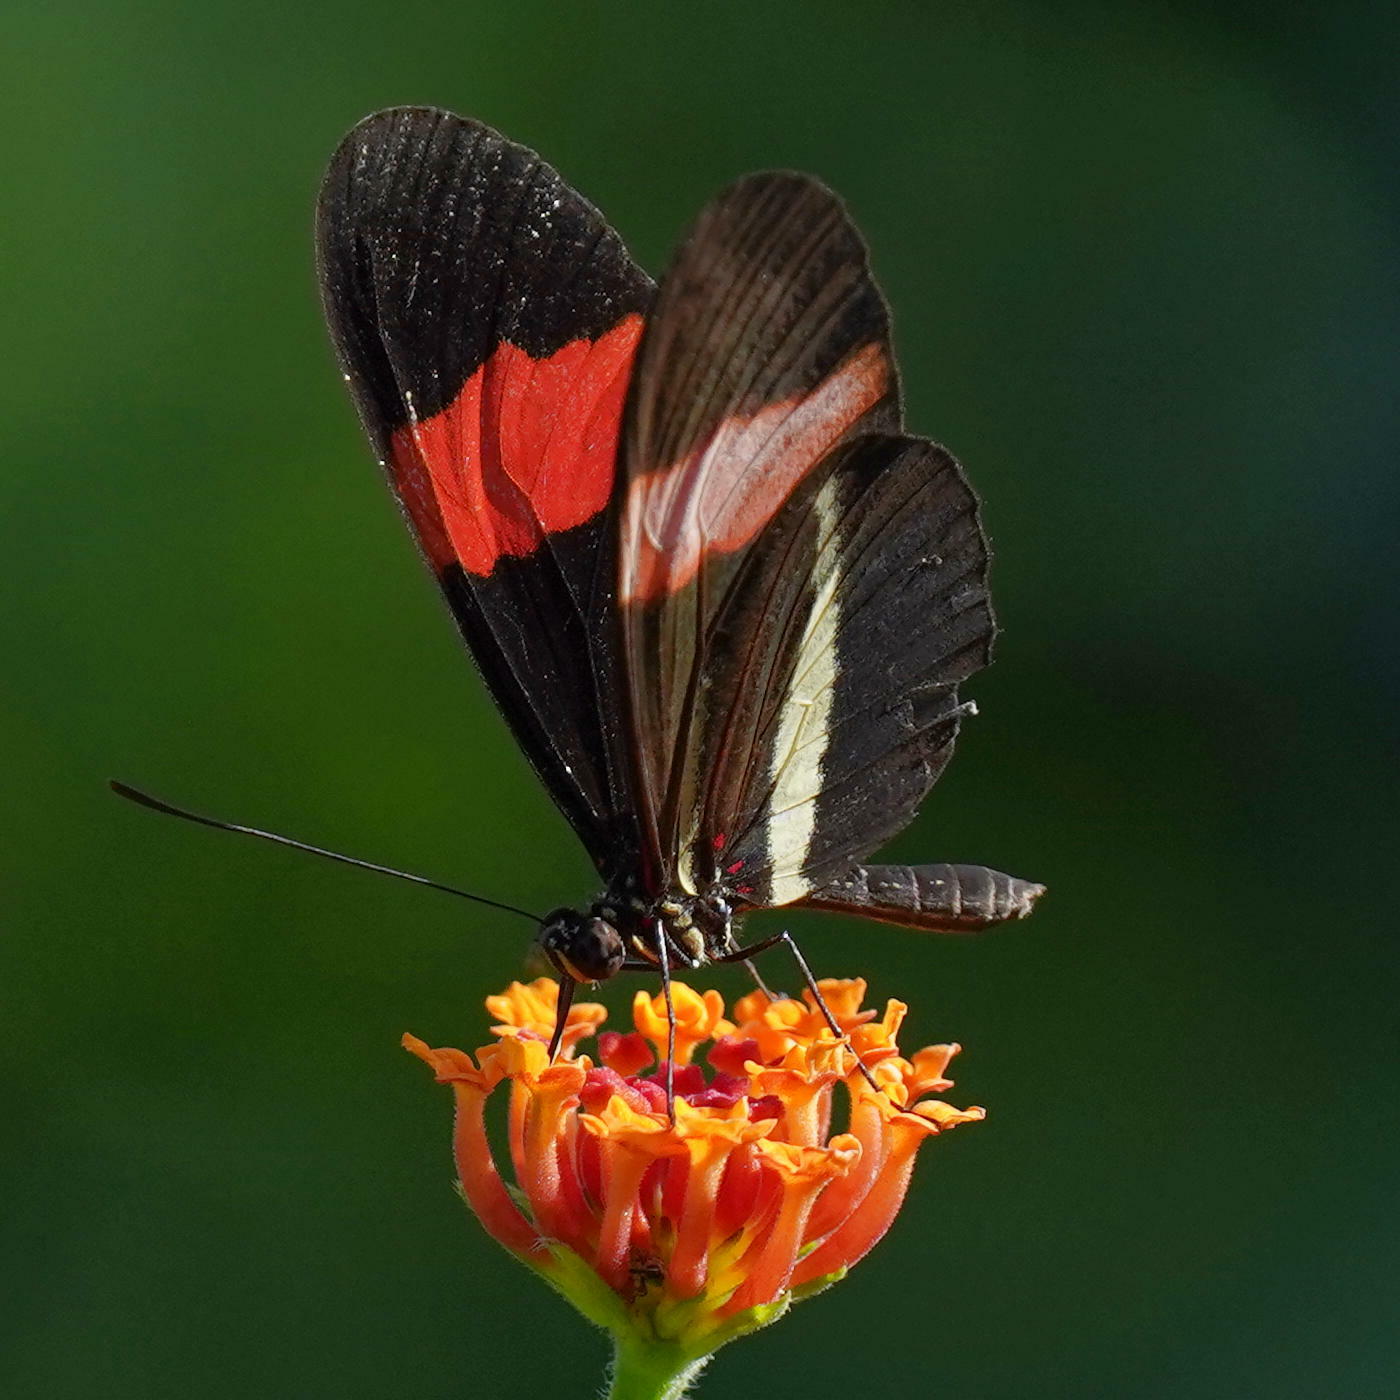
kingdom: Animalia
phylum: Arthropoda
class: Insecta
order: Lepidoptera
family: Nymphalidae
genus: Tirumala
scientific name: Tirumala petiverana
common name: Blue monarch
